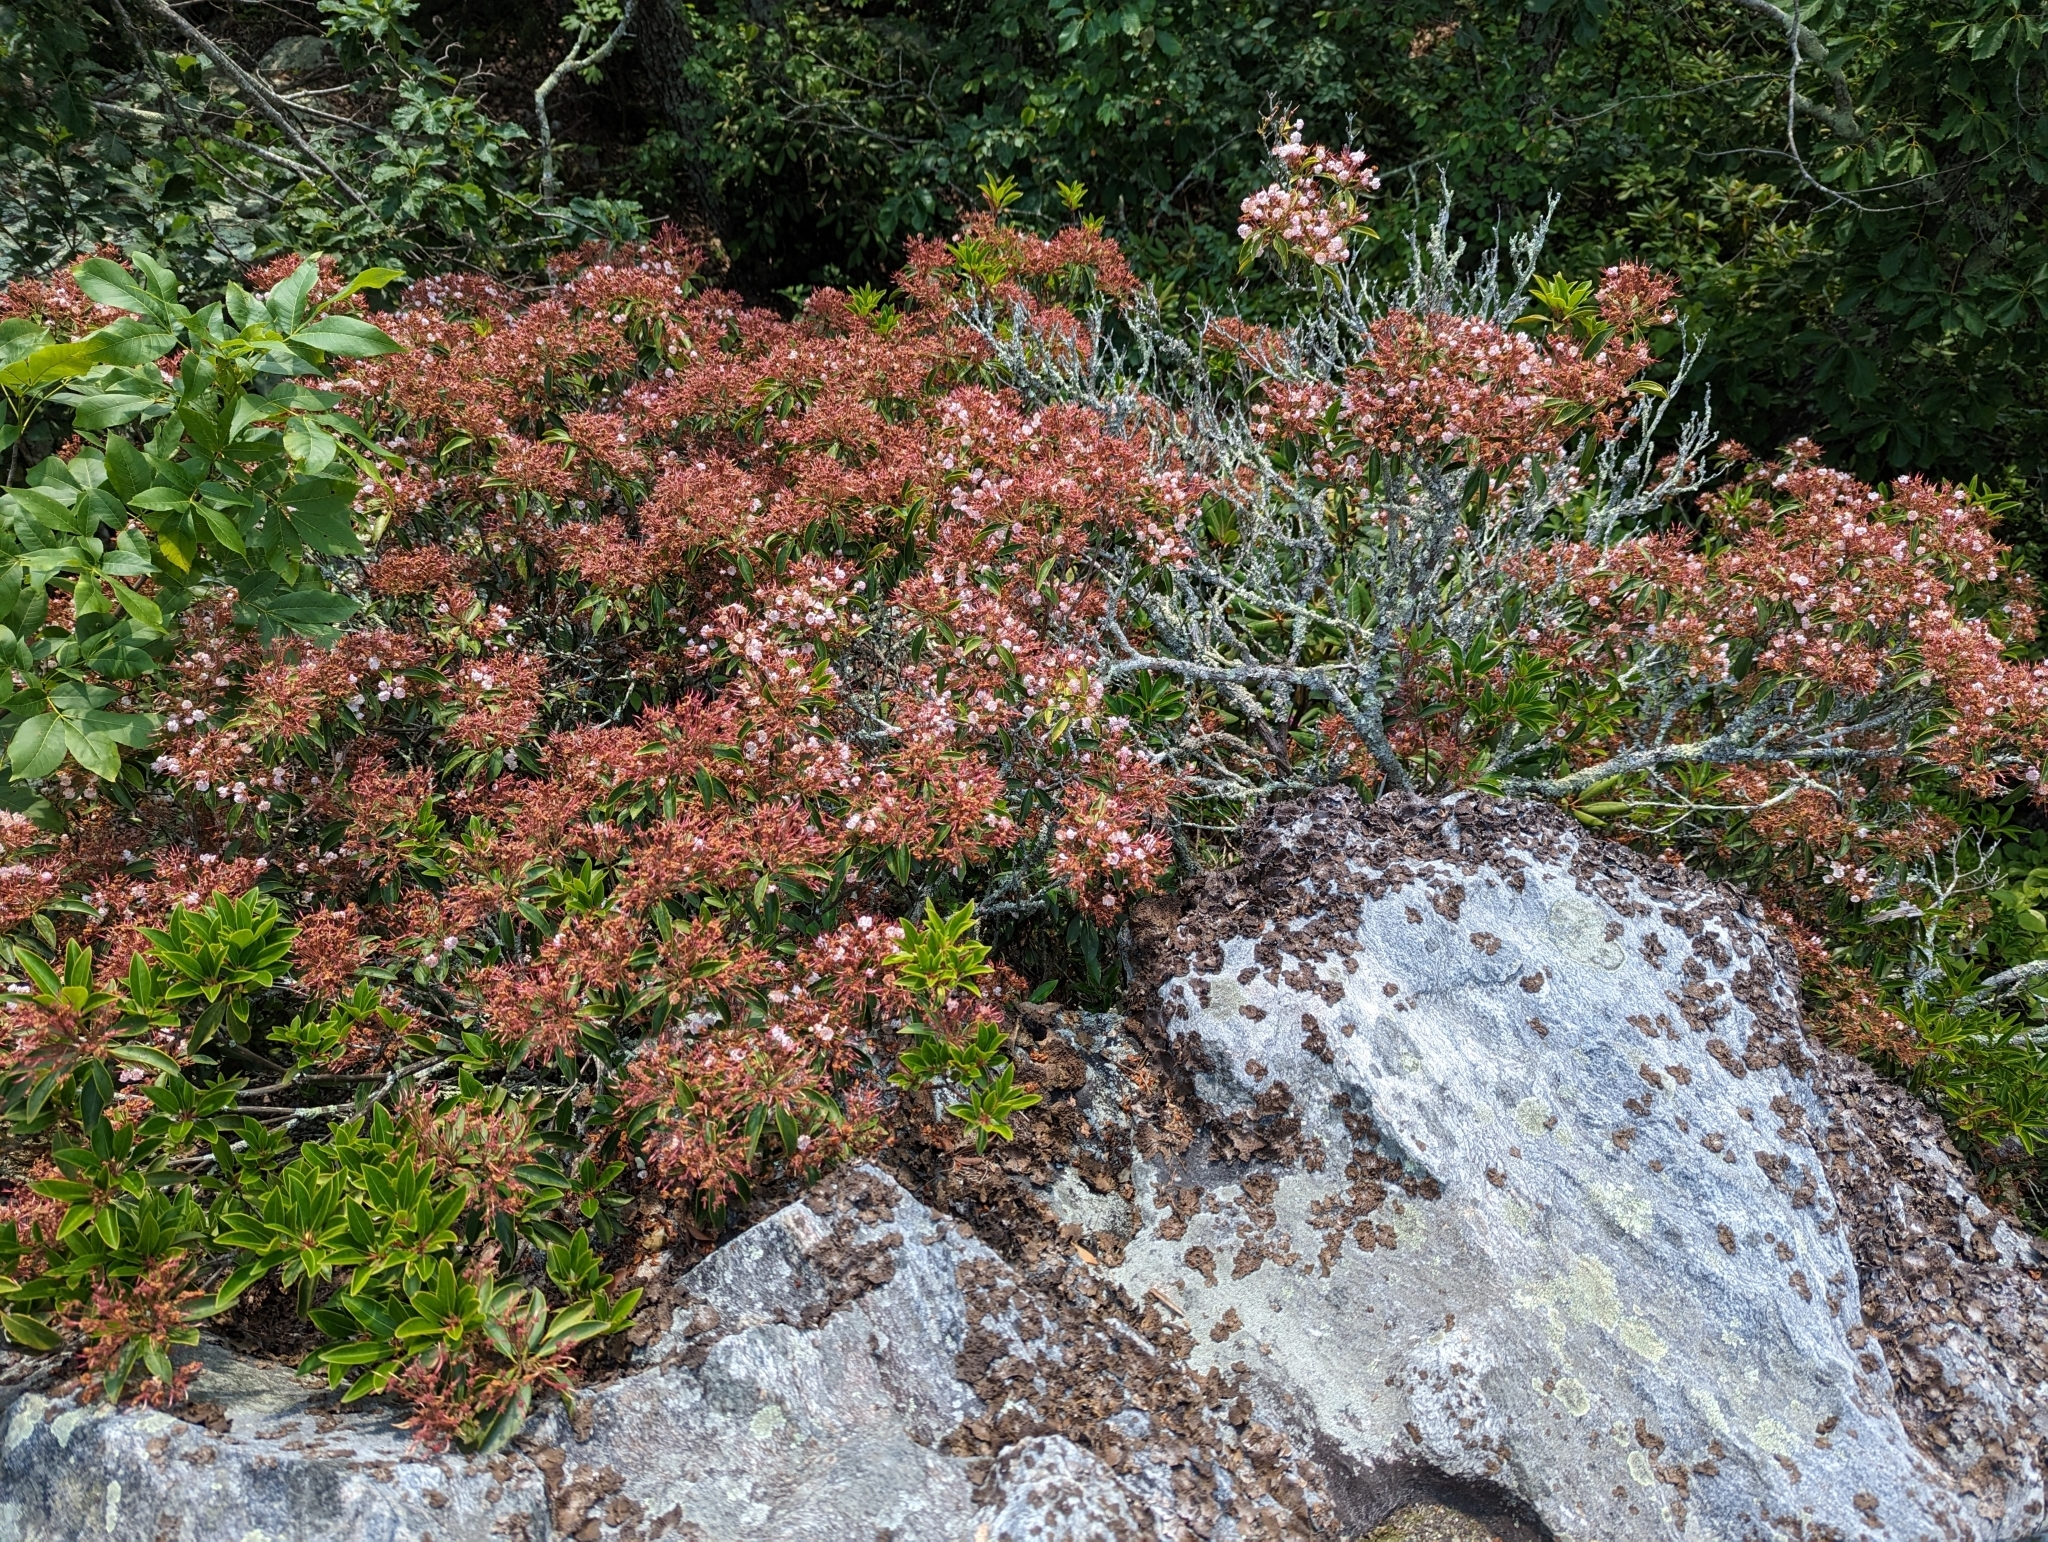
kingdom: Plantae
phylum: Tracheophyta
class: Magnoliopsida
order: Ericales
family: Ericaceae
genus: Kalmia
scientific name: Kalmia latifolia
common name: Mountain-laurel
